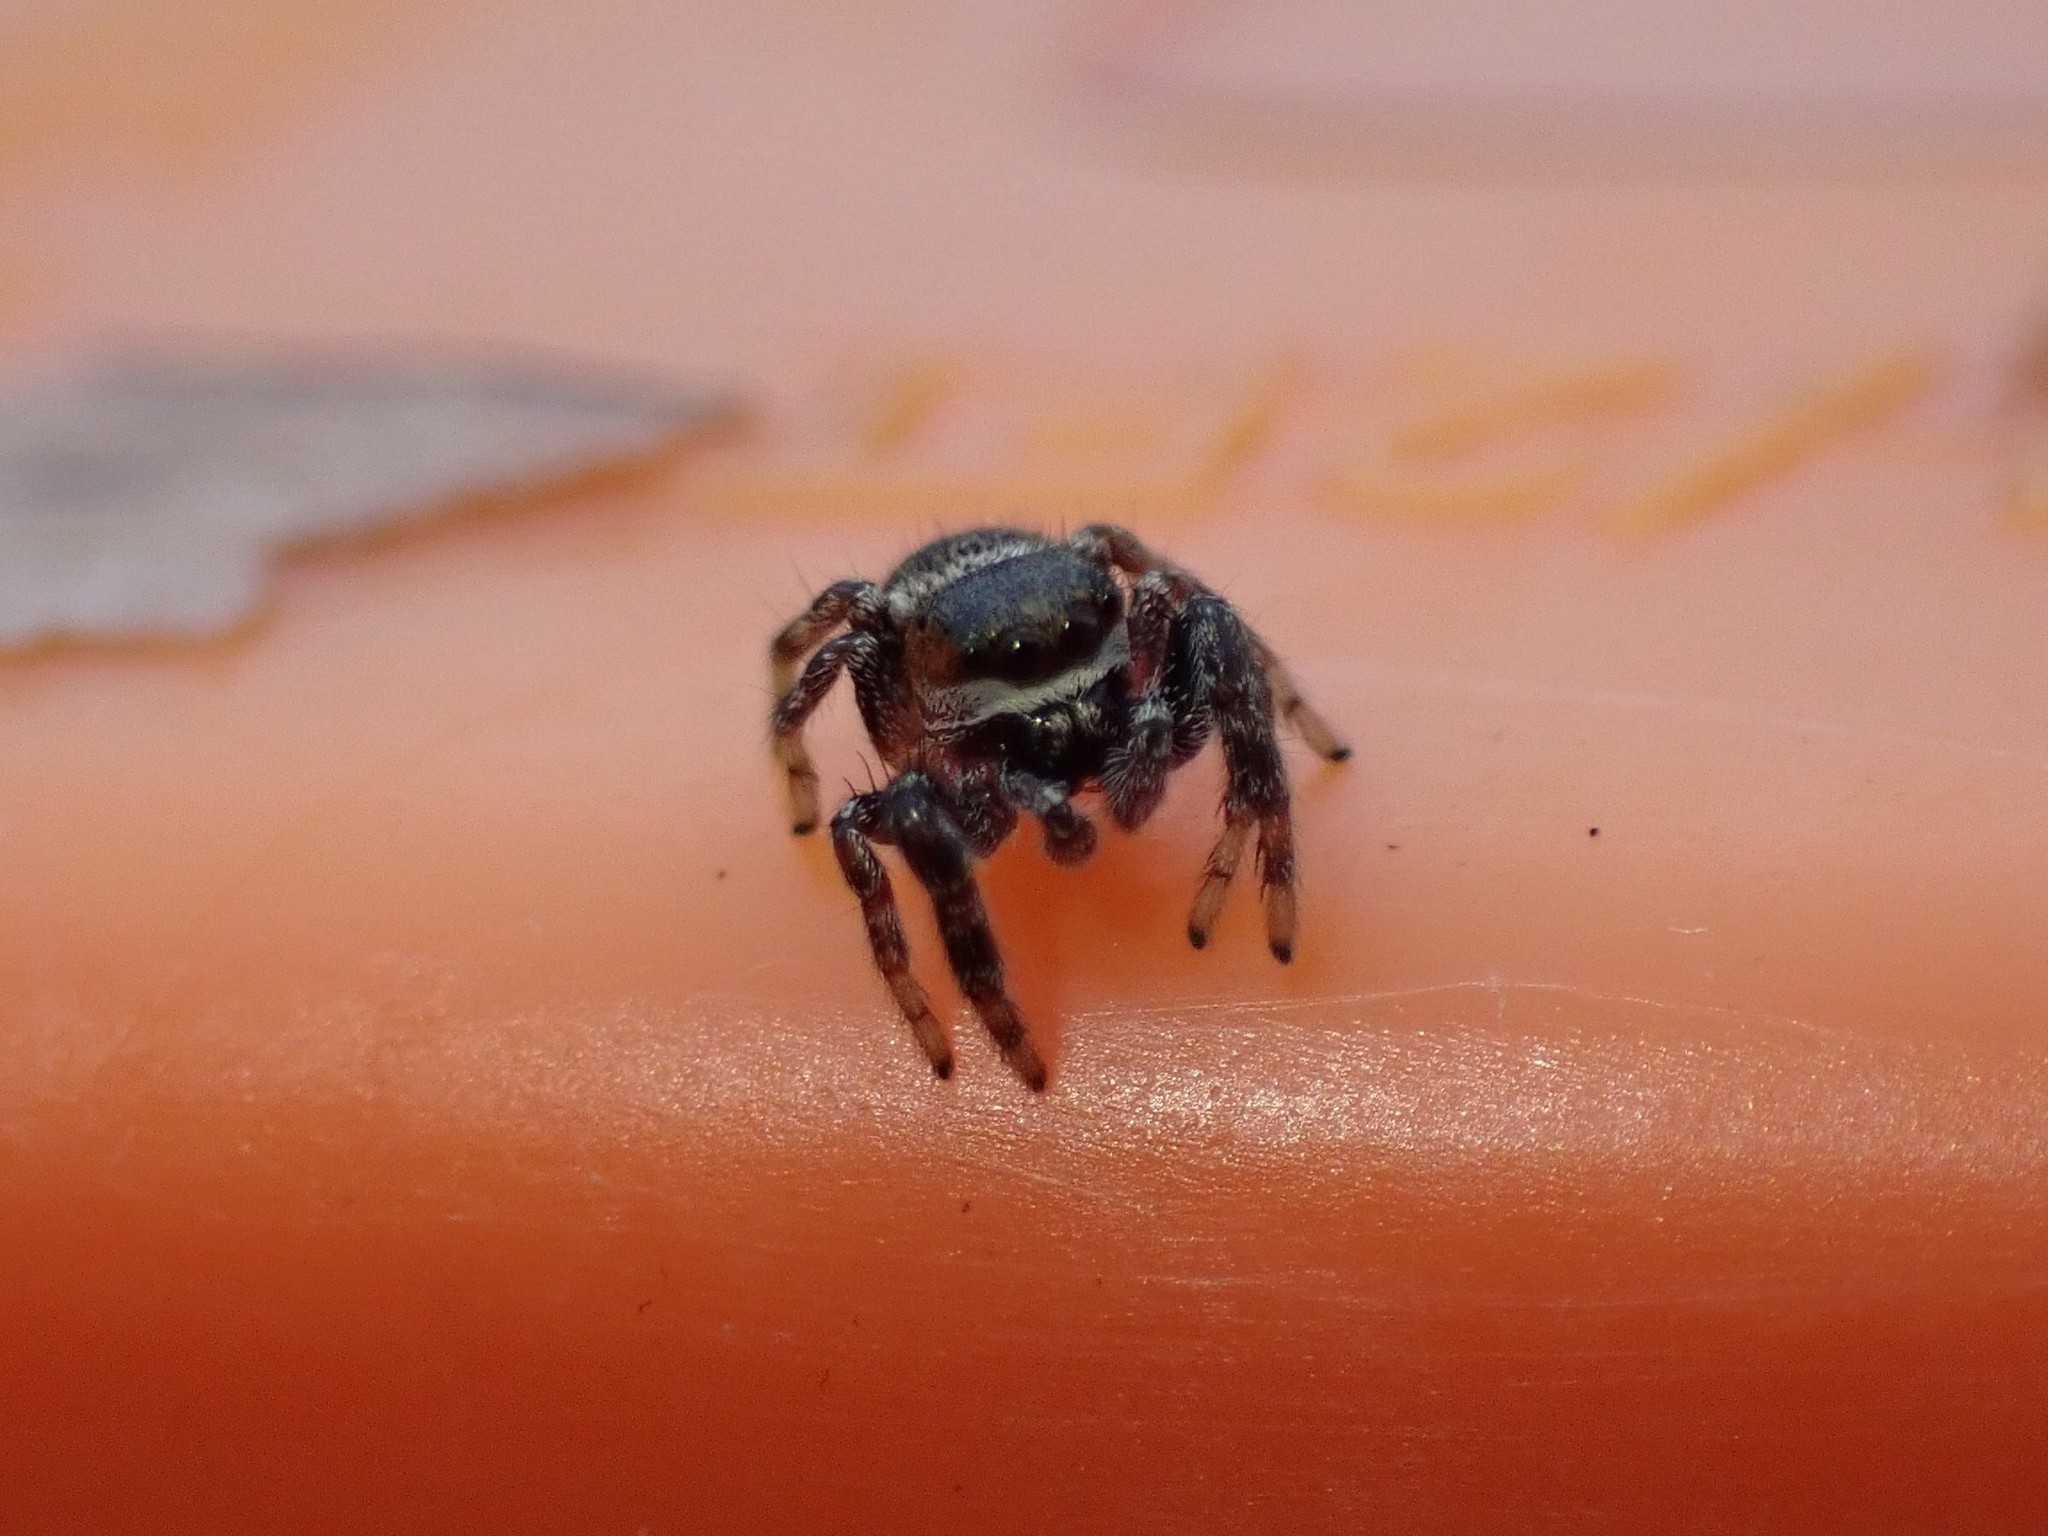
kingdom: Animalia
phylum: Arthropoda
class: Arachnida
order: Araneae
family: Salticidae
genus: Pelegrina
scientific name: Pelegrina aeneola
